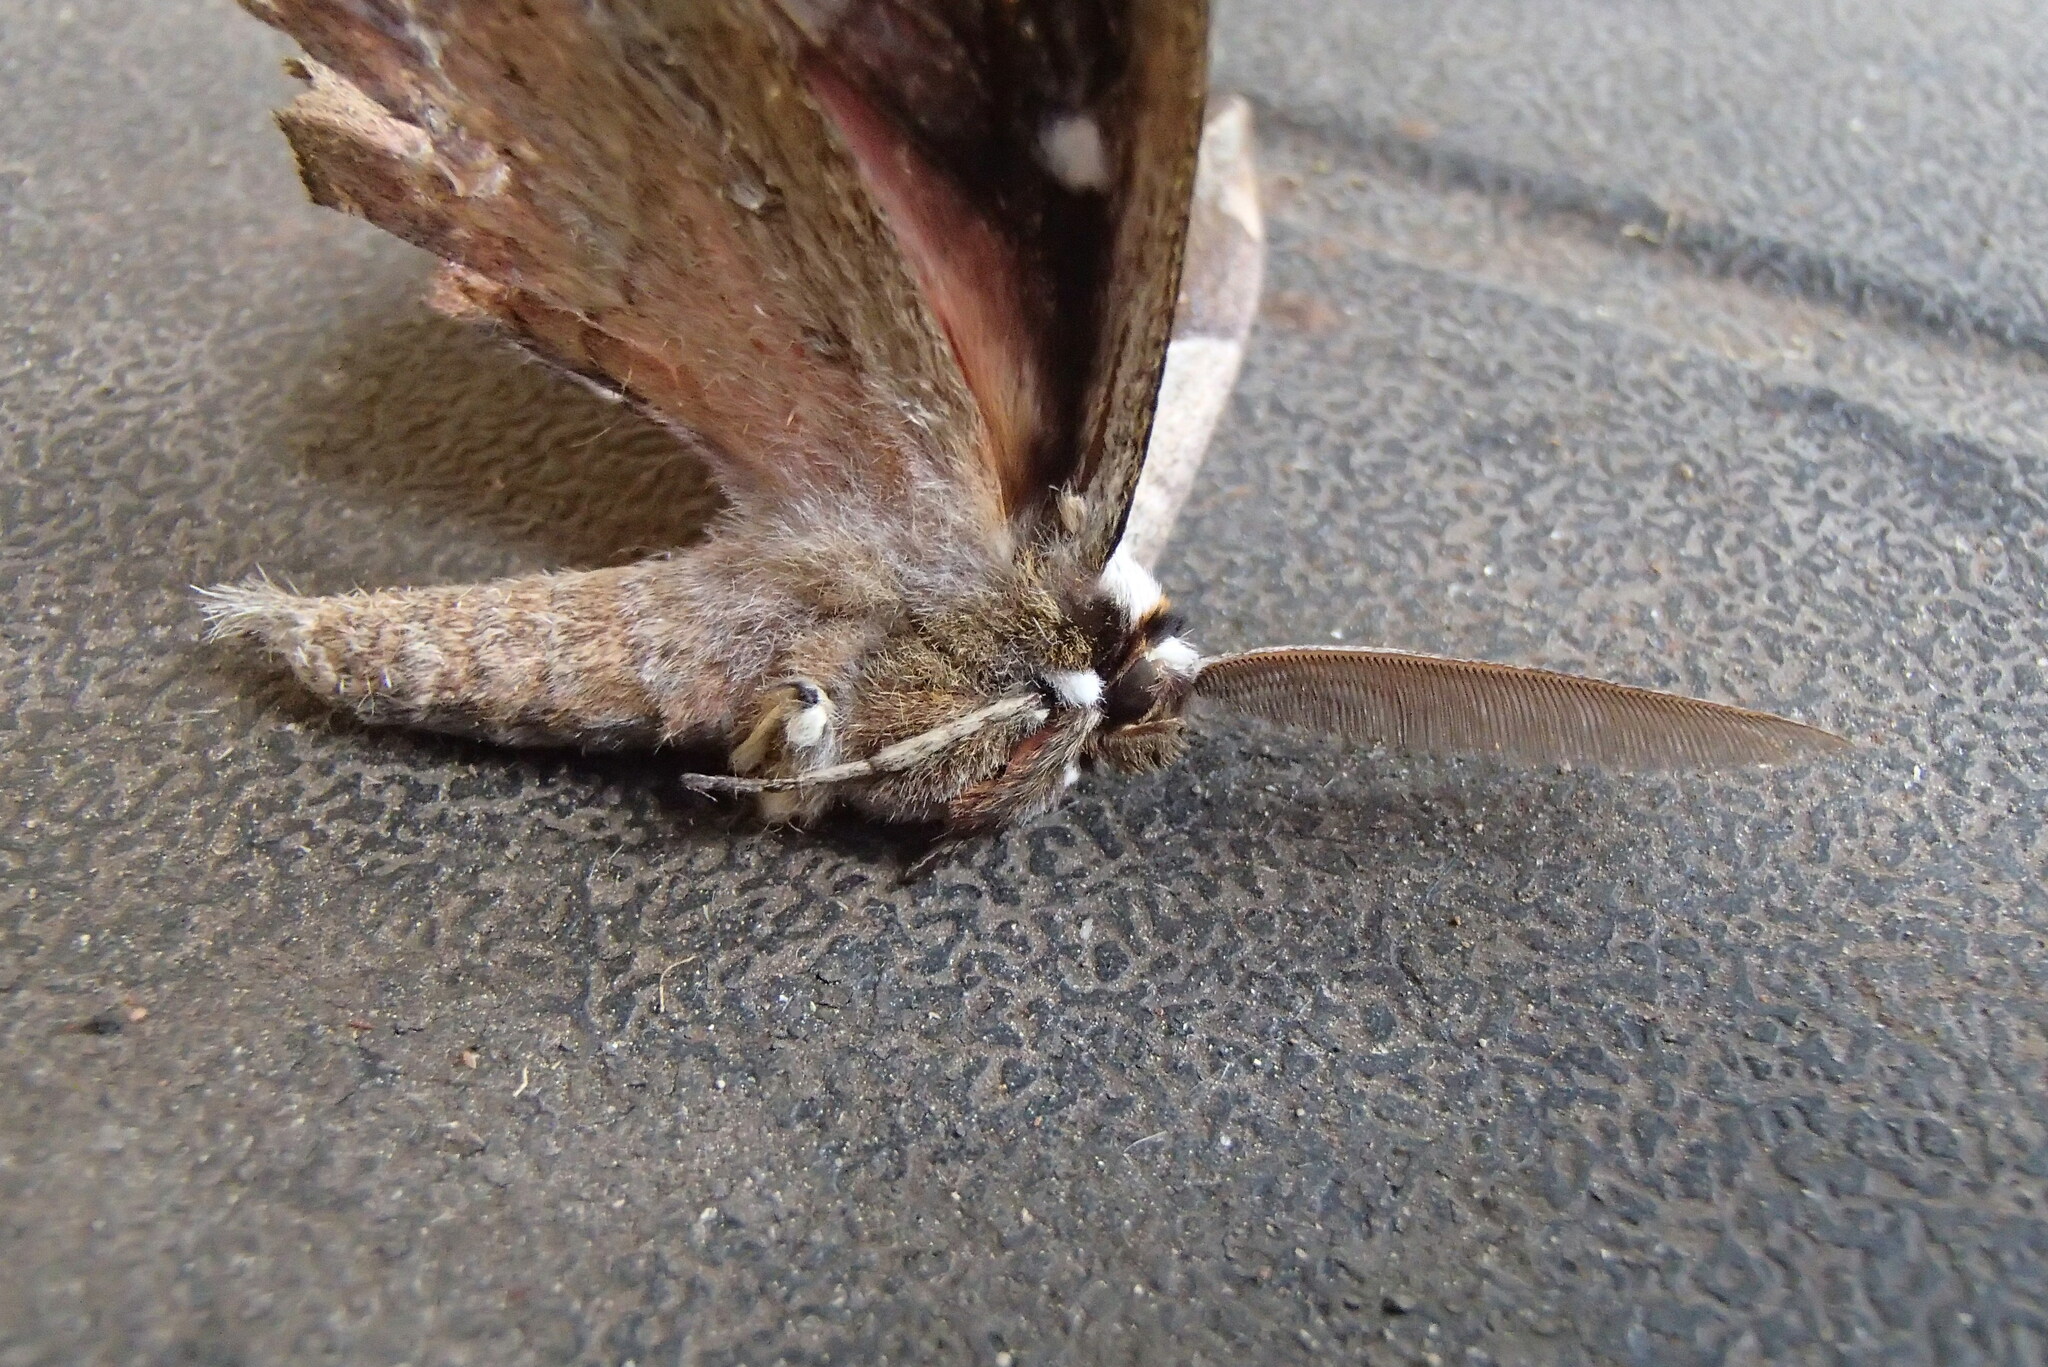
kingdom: Animalia
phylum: Arthropoda
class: Insecta
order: Lepidoptera
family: Anthelidae
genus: Chelepteryx
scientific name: Chelepteryx chalepteryx
